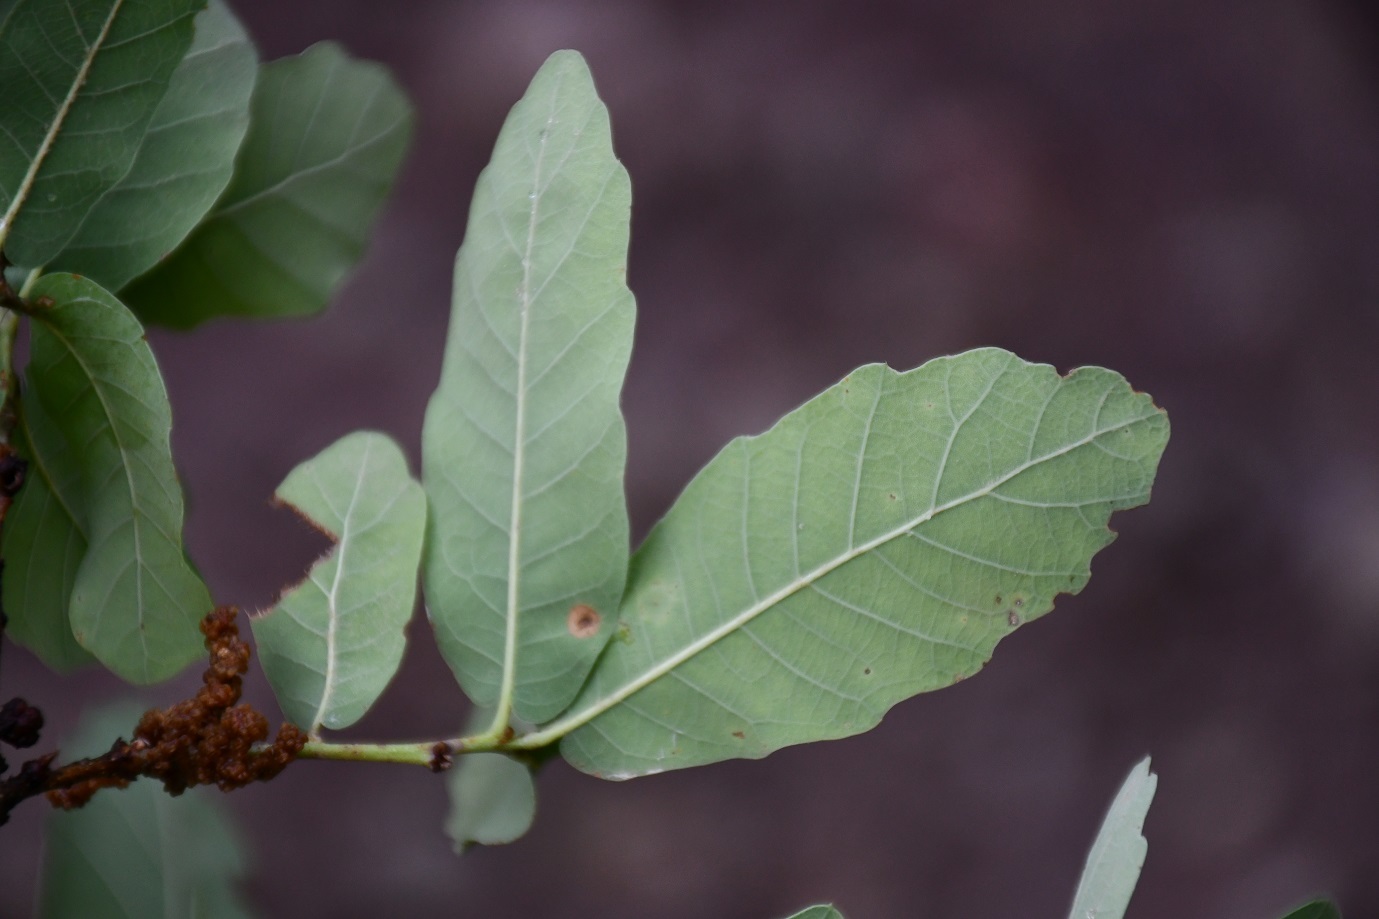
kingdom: Plantae
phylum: Tracheophyta
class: Magnoliopsida
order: Fagales
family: Fagaceae
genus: Quercus
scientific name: Quercus glaucoides
